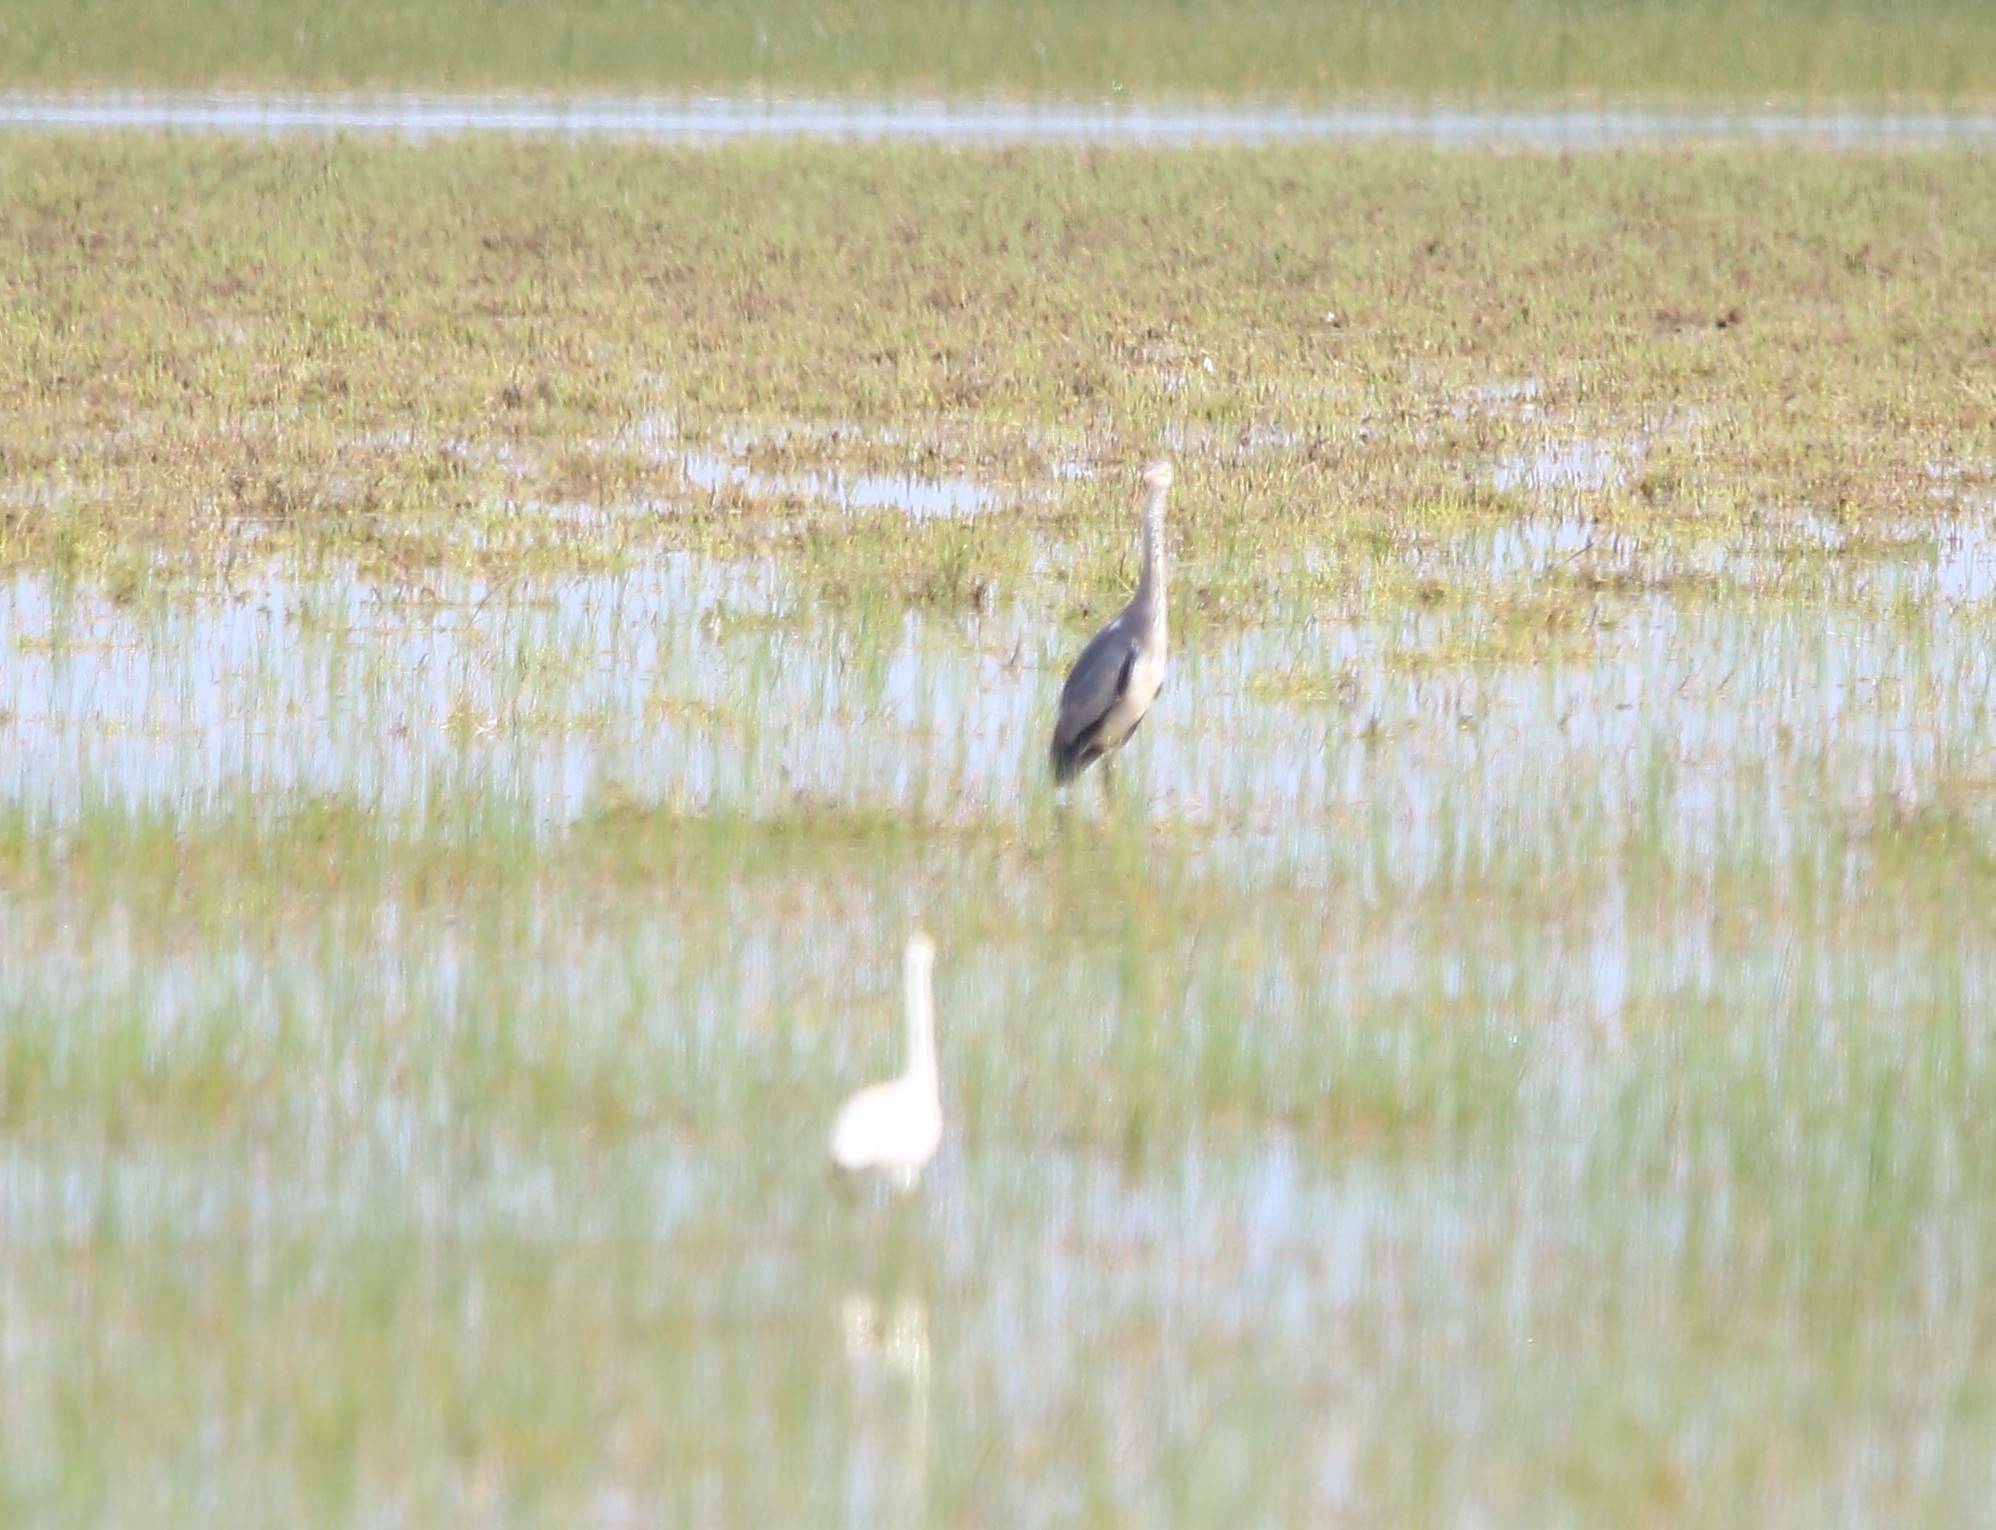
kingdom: Animalia
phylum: Chordata
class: Aves
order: Pelecaniformes
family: Ardeidae
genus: Ardea
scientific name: Ardea cinerea
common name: Grey heron
